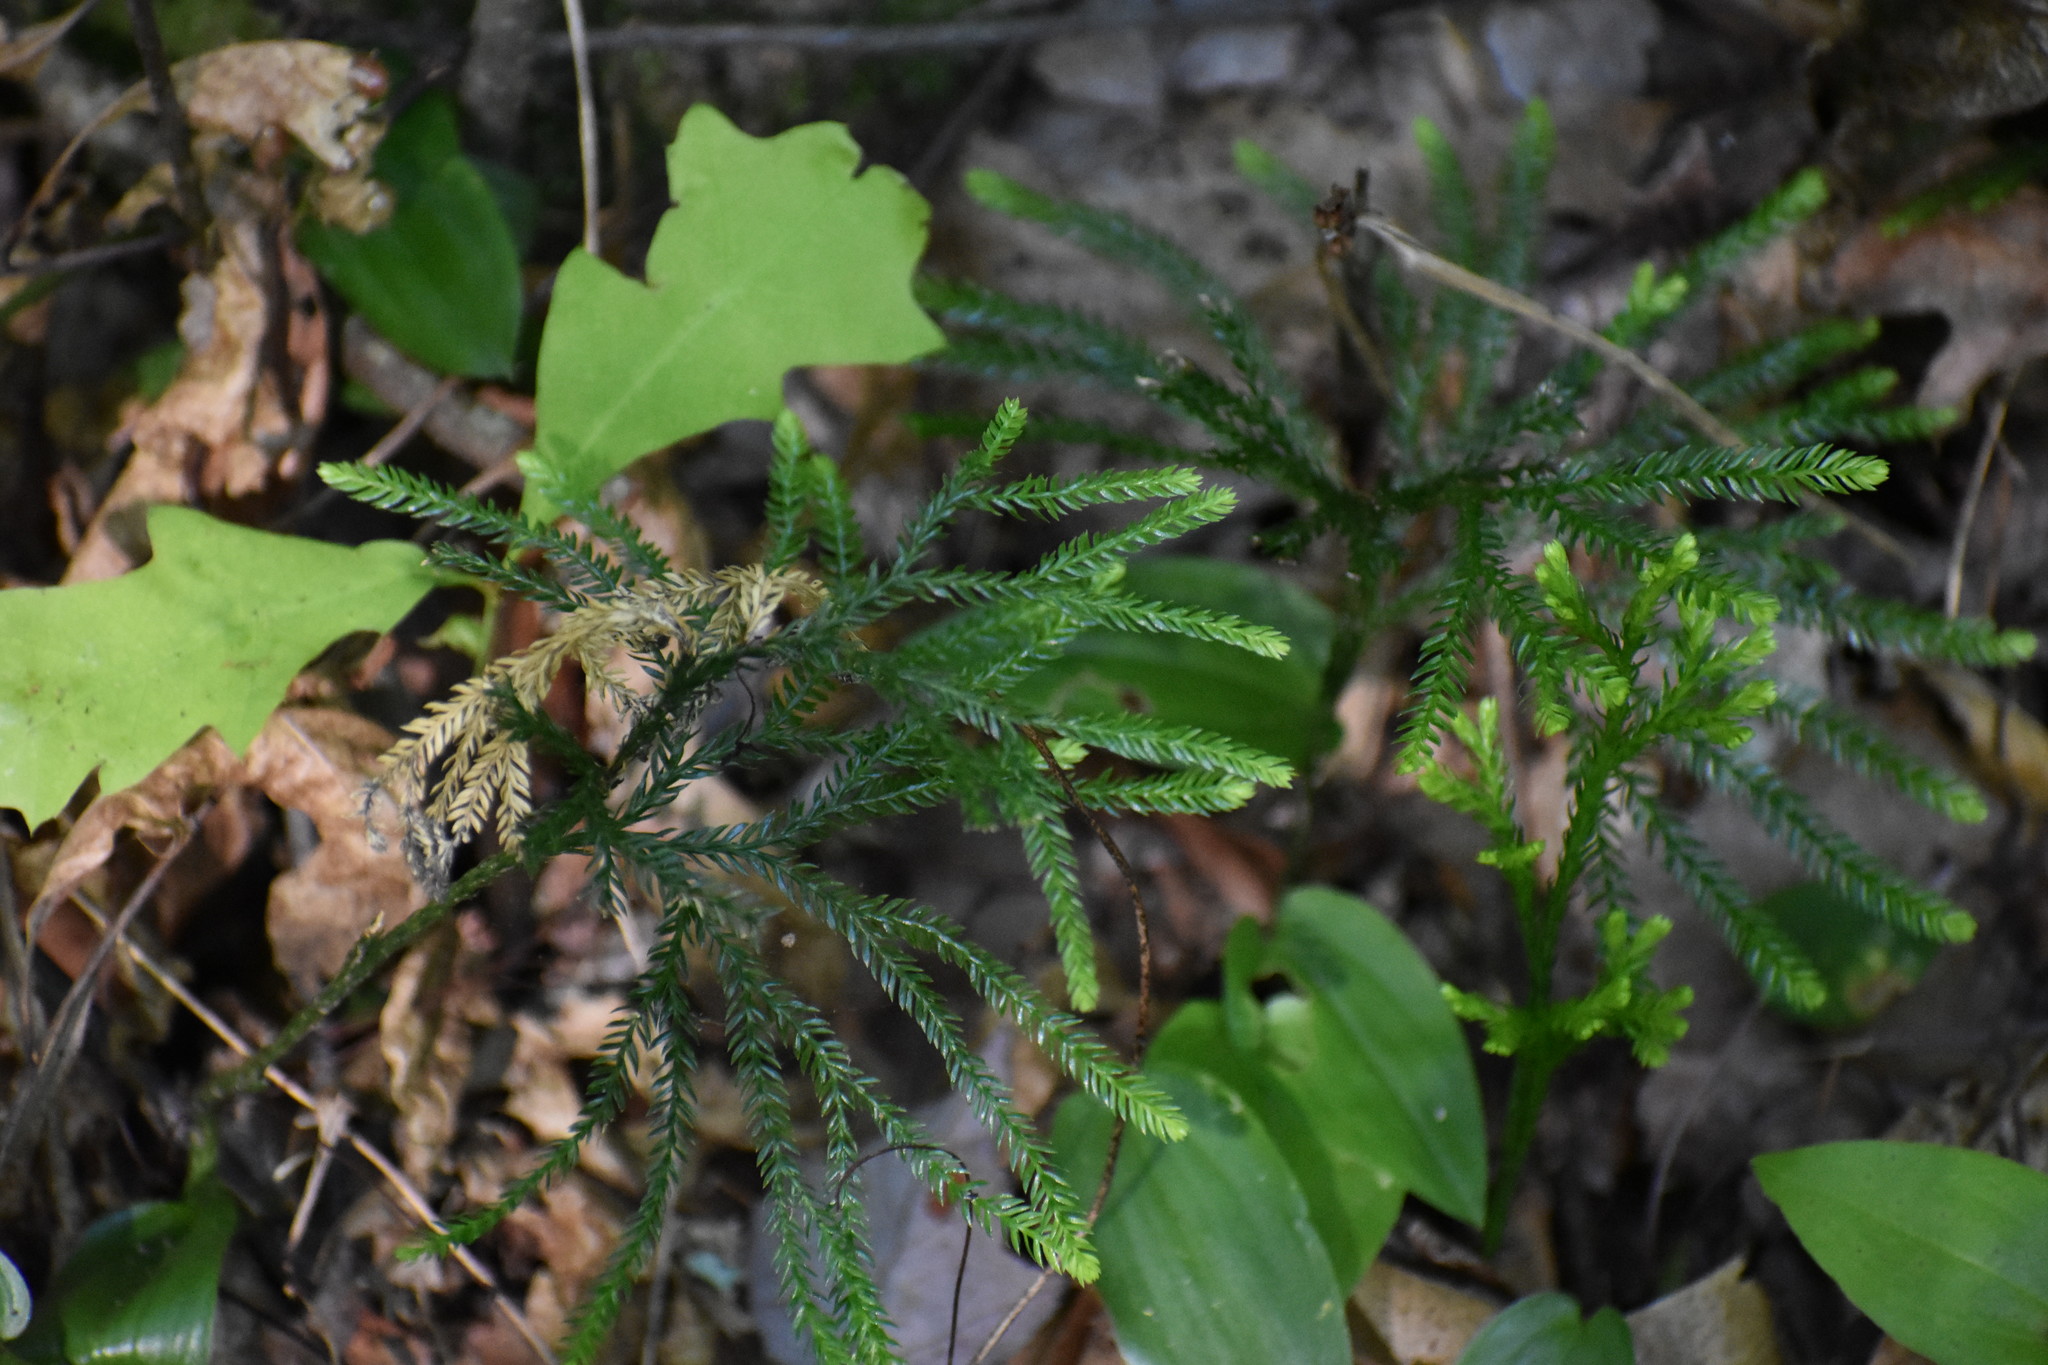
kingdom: Plantae
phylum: Tracheophyta
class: Lycopodiopsida
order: Lycopodiales
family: Lycopodiaceae
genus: Dendrolycopodium
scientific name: Dendrolycopodium obscurum
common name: Common ground-pine
